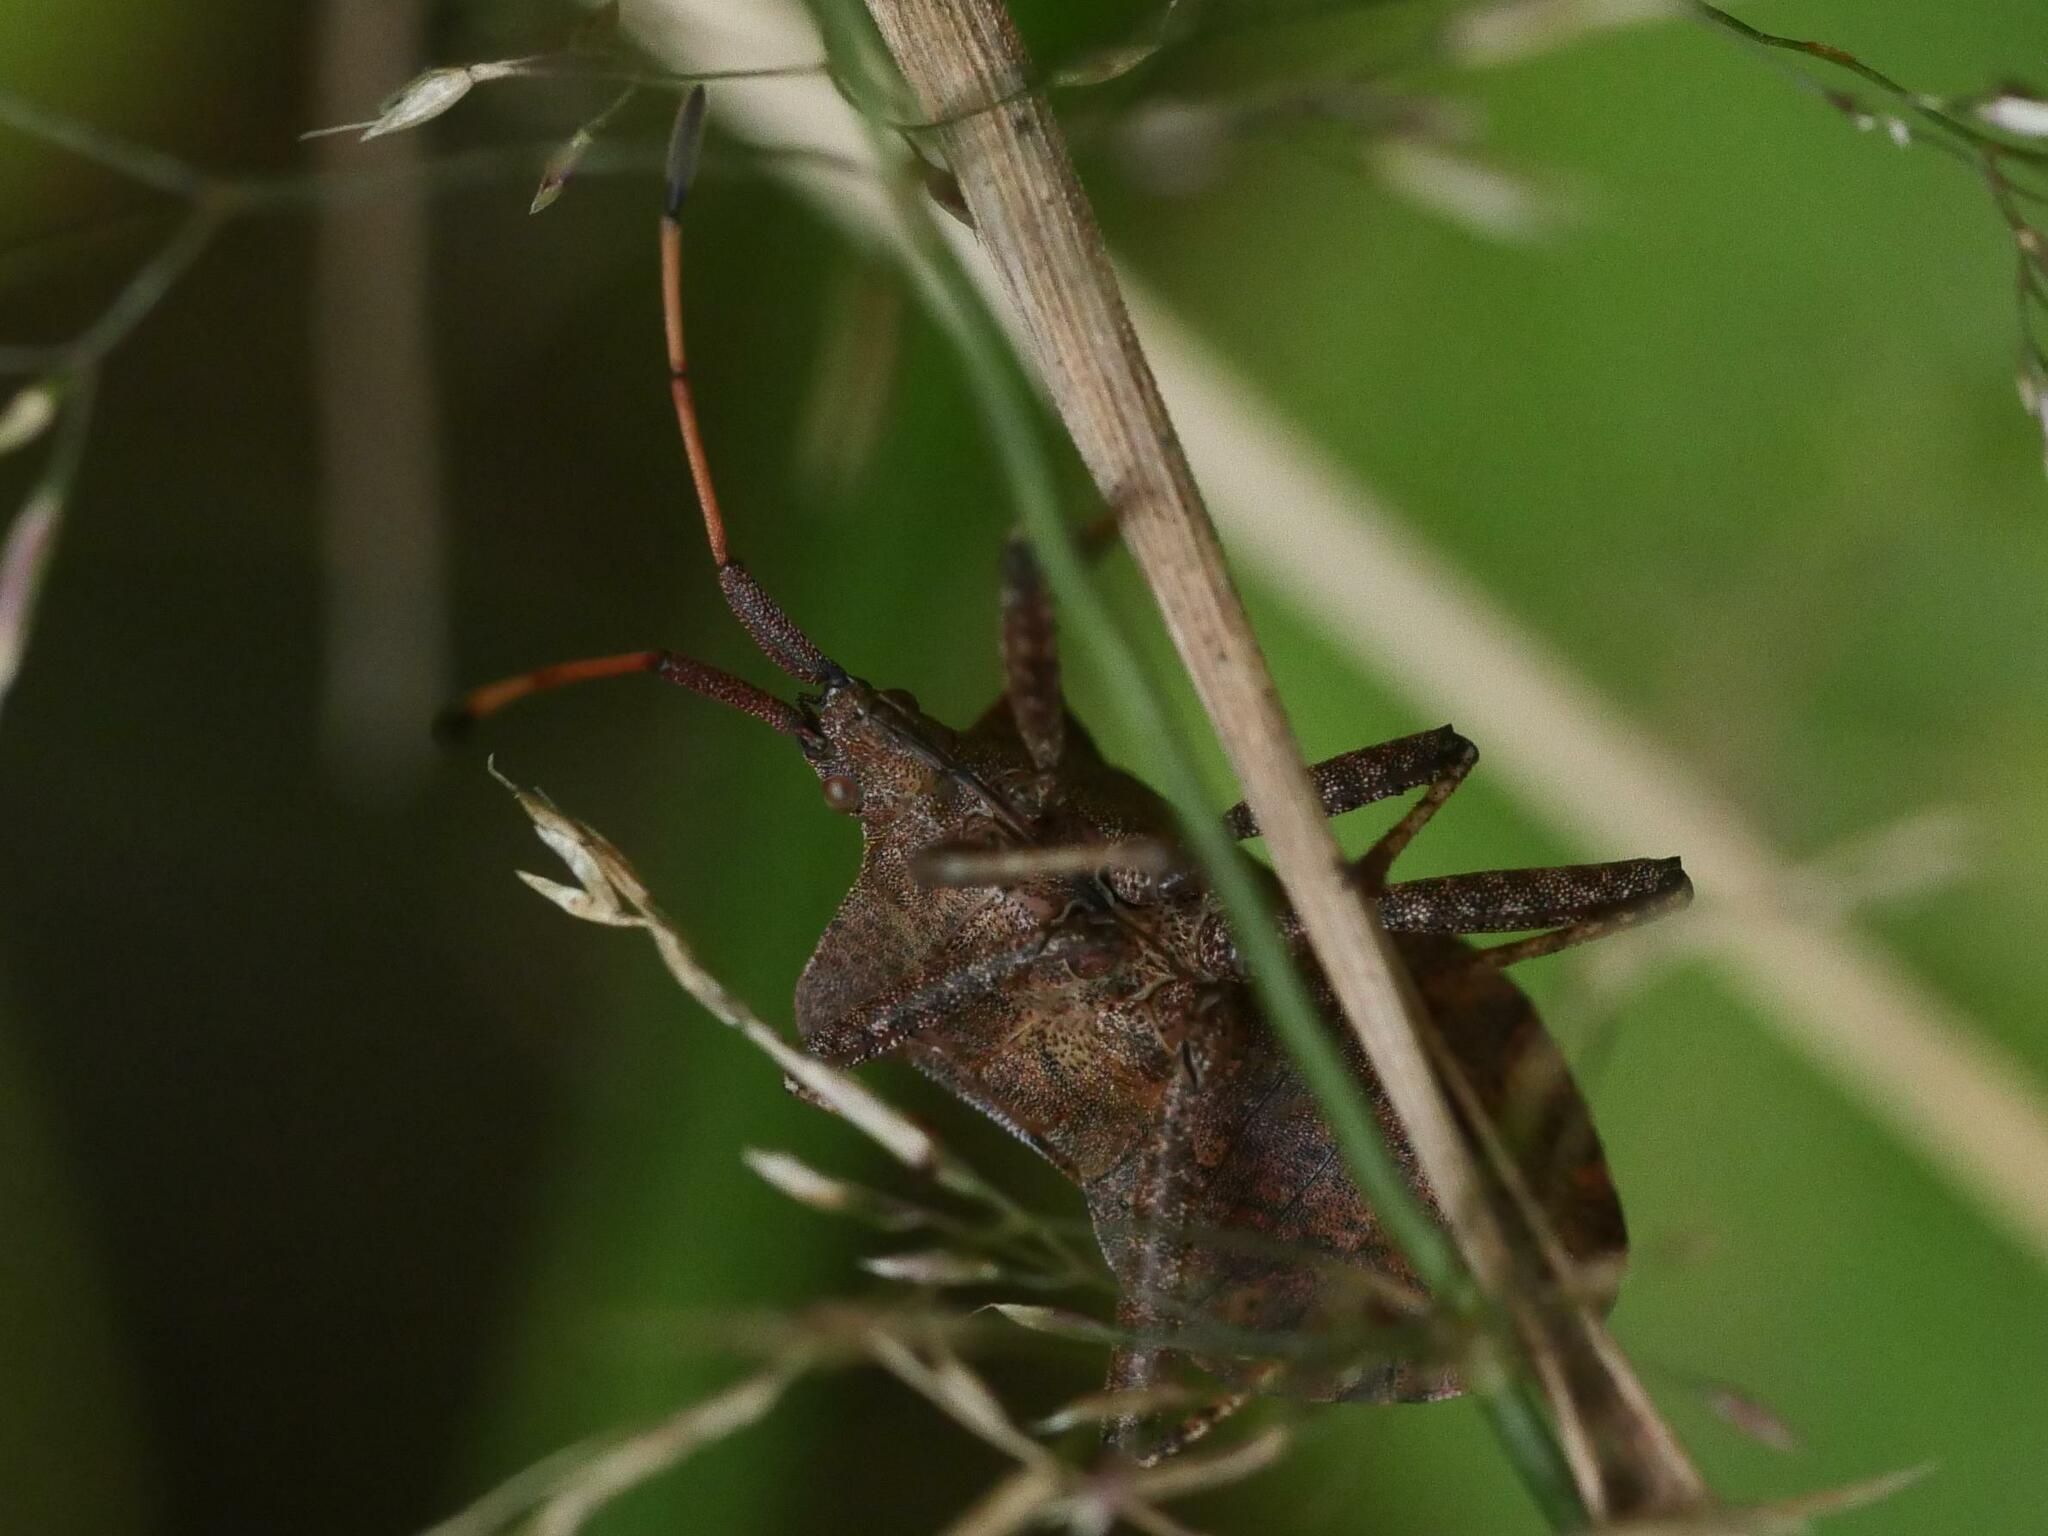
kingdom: Animalia
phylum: Arthropoda
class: Insecta
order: Hemiptera
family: Coreidae
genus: Coreus
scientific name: Coreus marginatus
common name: Dock bug
